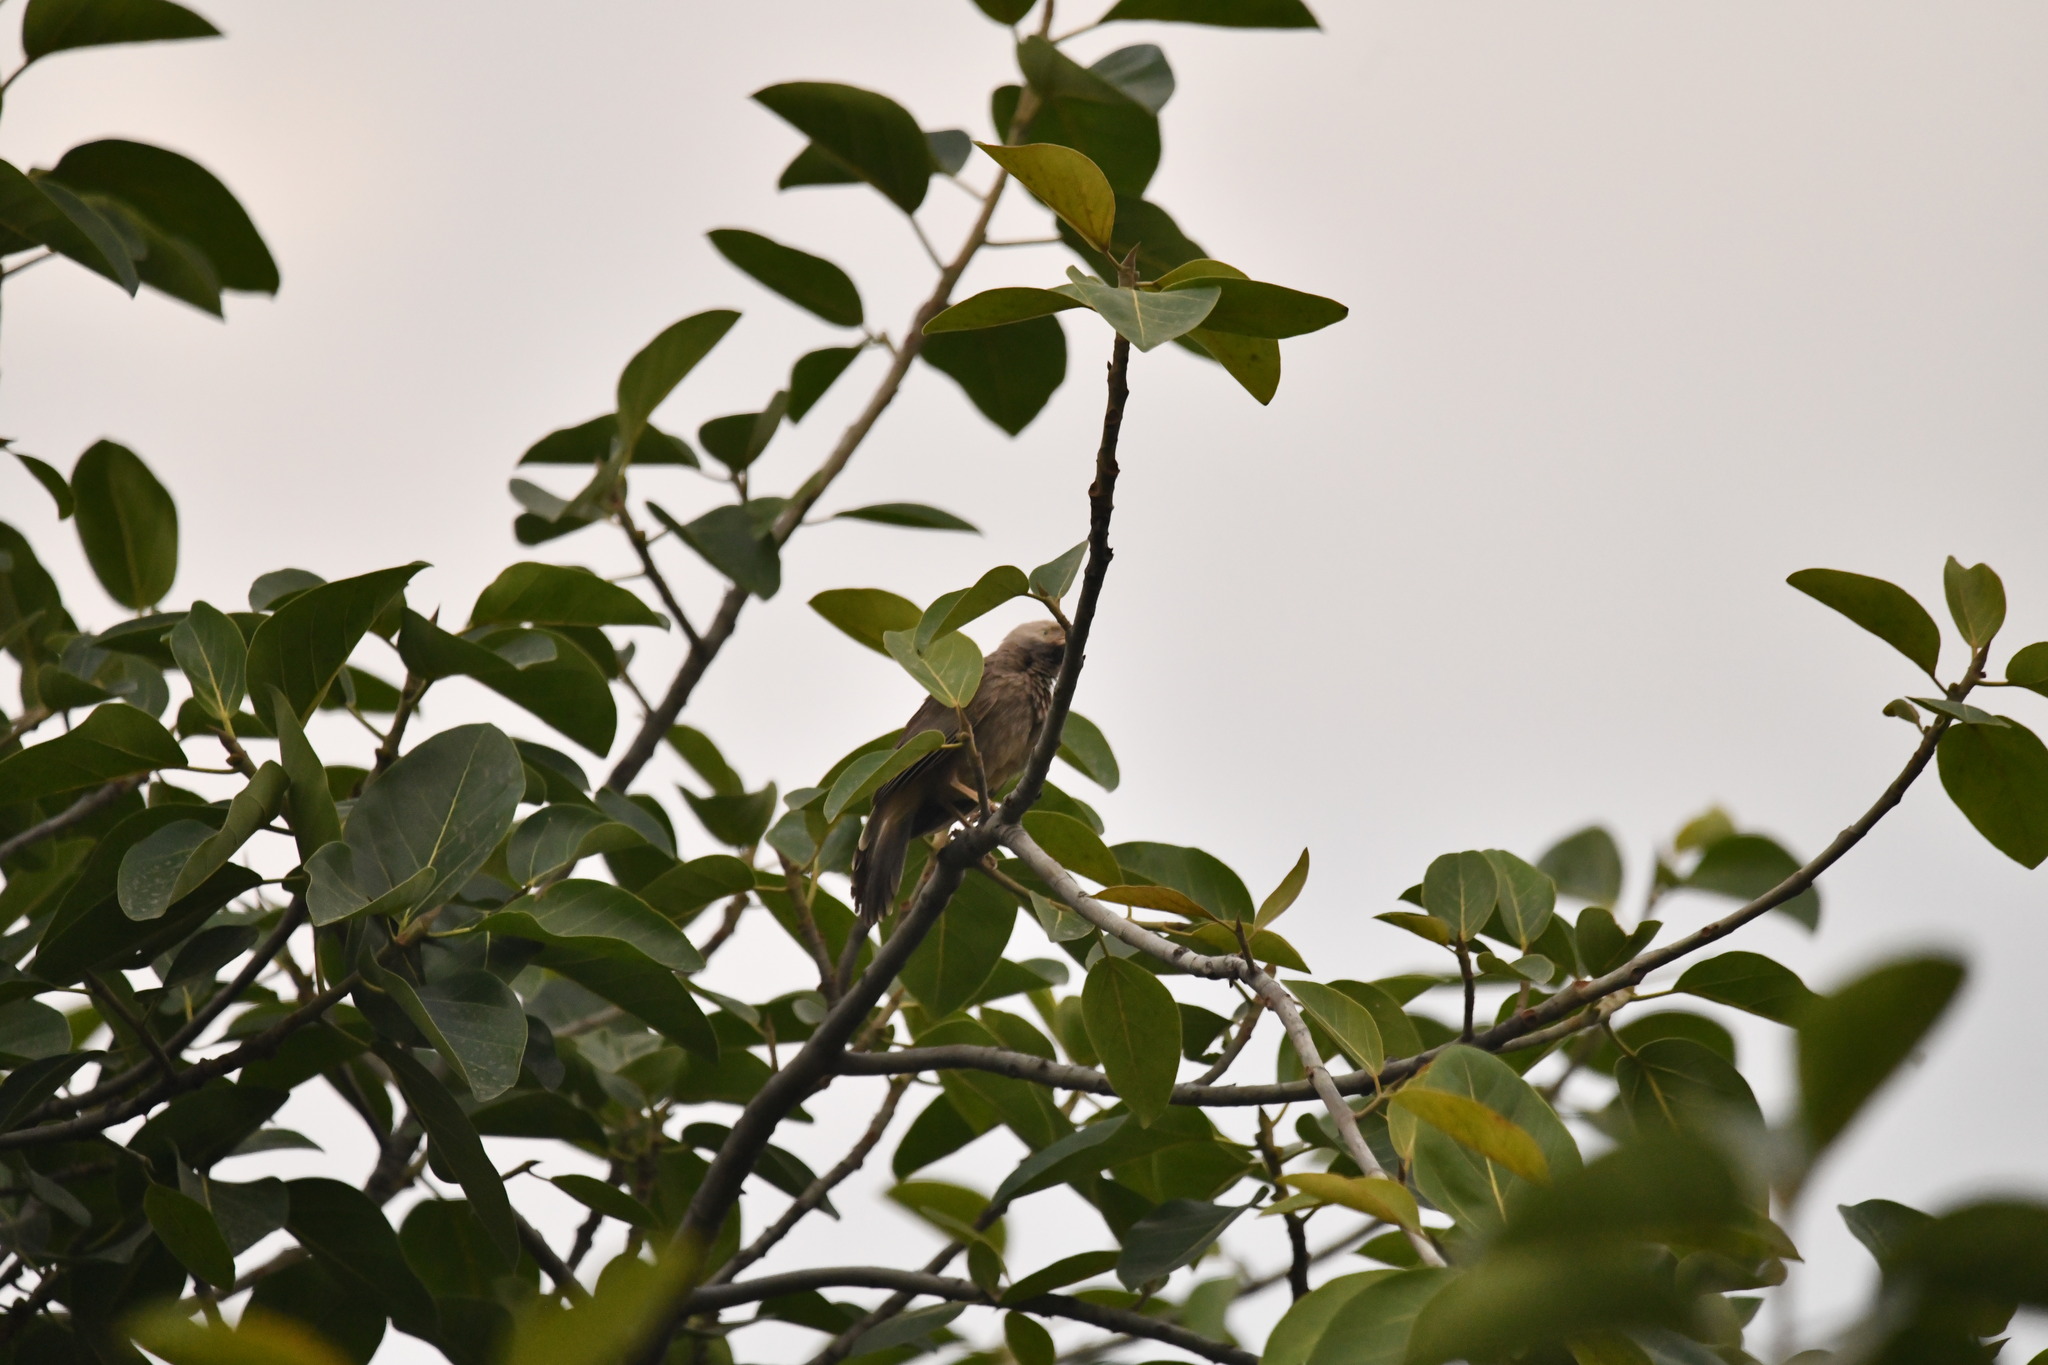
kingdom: Animalia
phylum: Chordata
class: Aves
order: Passeriformes
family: Leiothrichidae
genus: Turdoides
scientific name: Turdoides affinis
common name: Yellow-billed babbler
